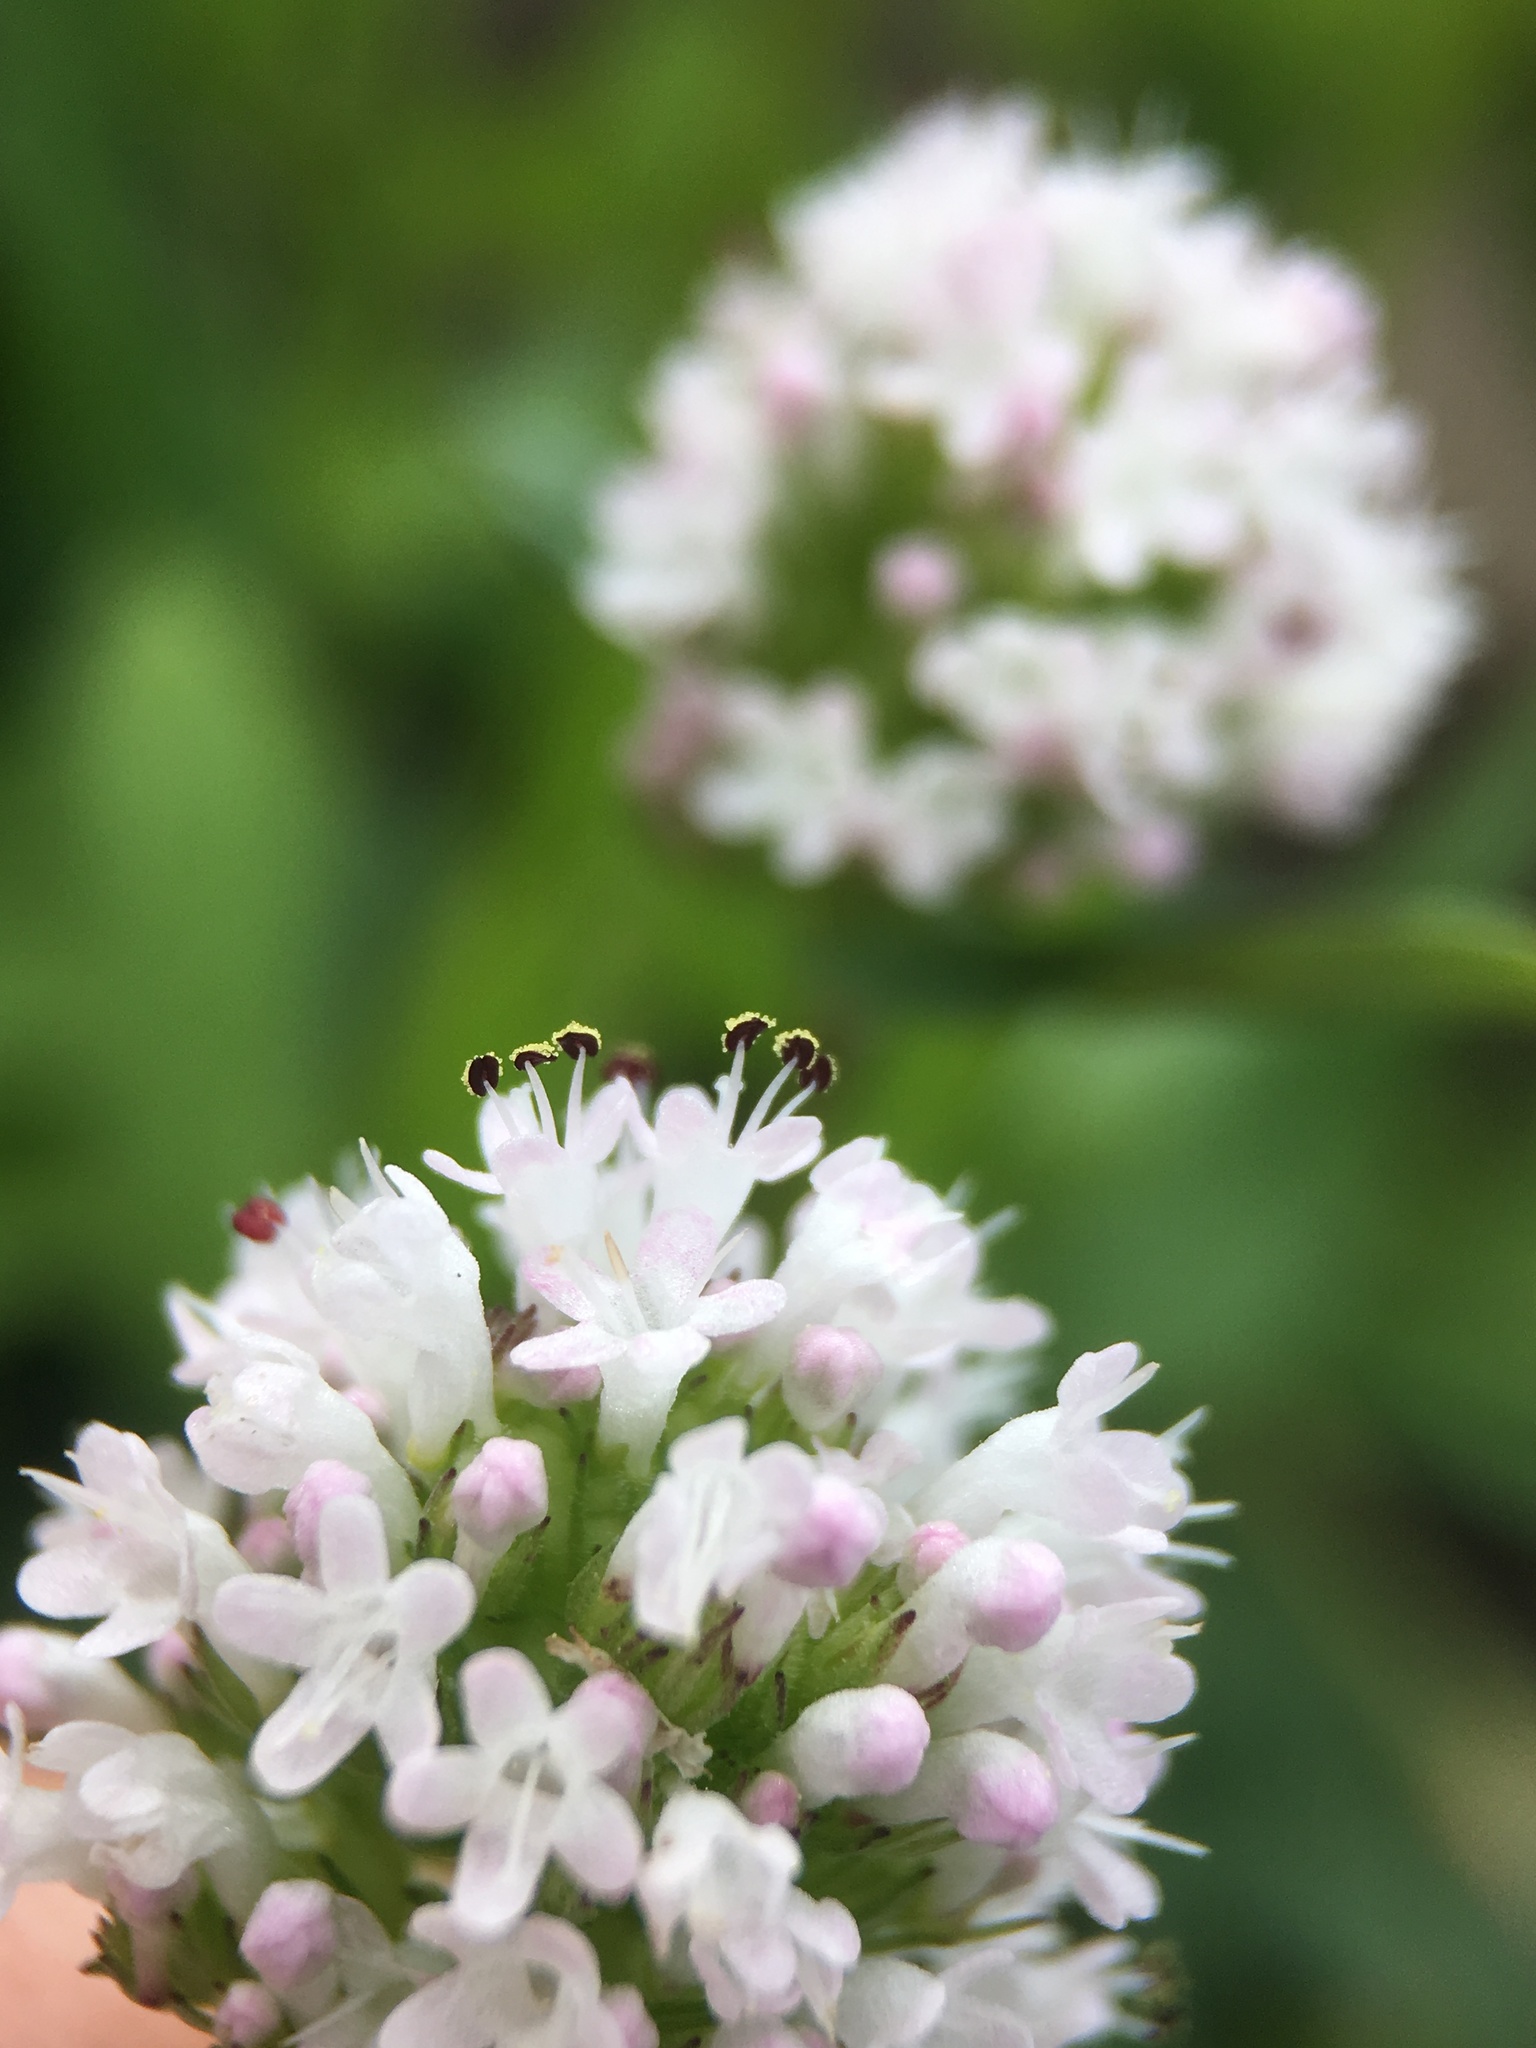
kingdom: Plantae
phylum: Tracheophyta
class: Magnoliopsida
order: Dipsacales
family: Caprifoliaceae
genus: Plectritis
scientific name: Plectritis macroptera
